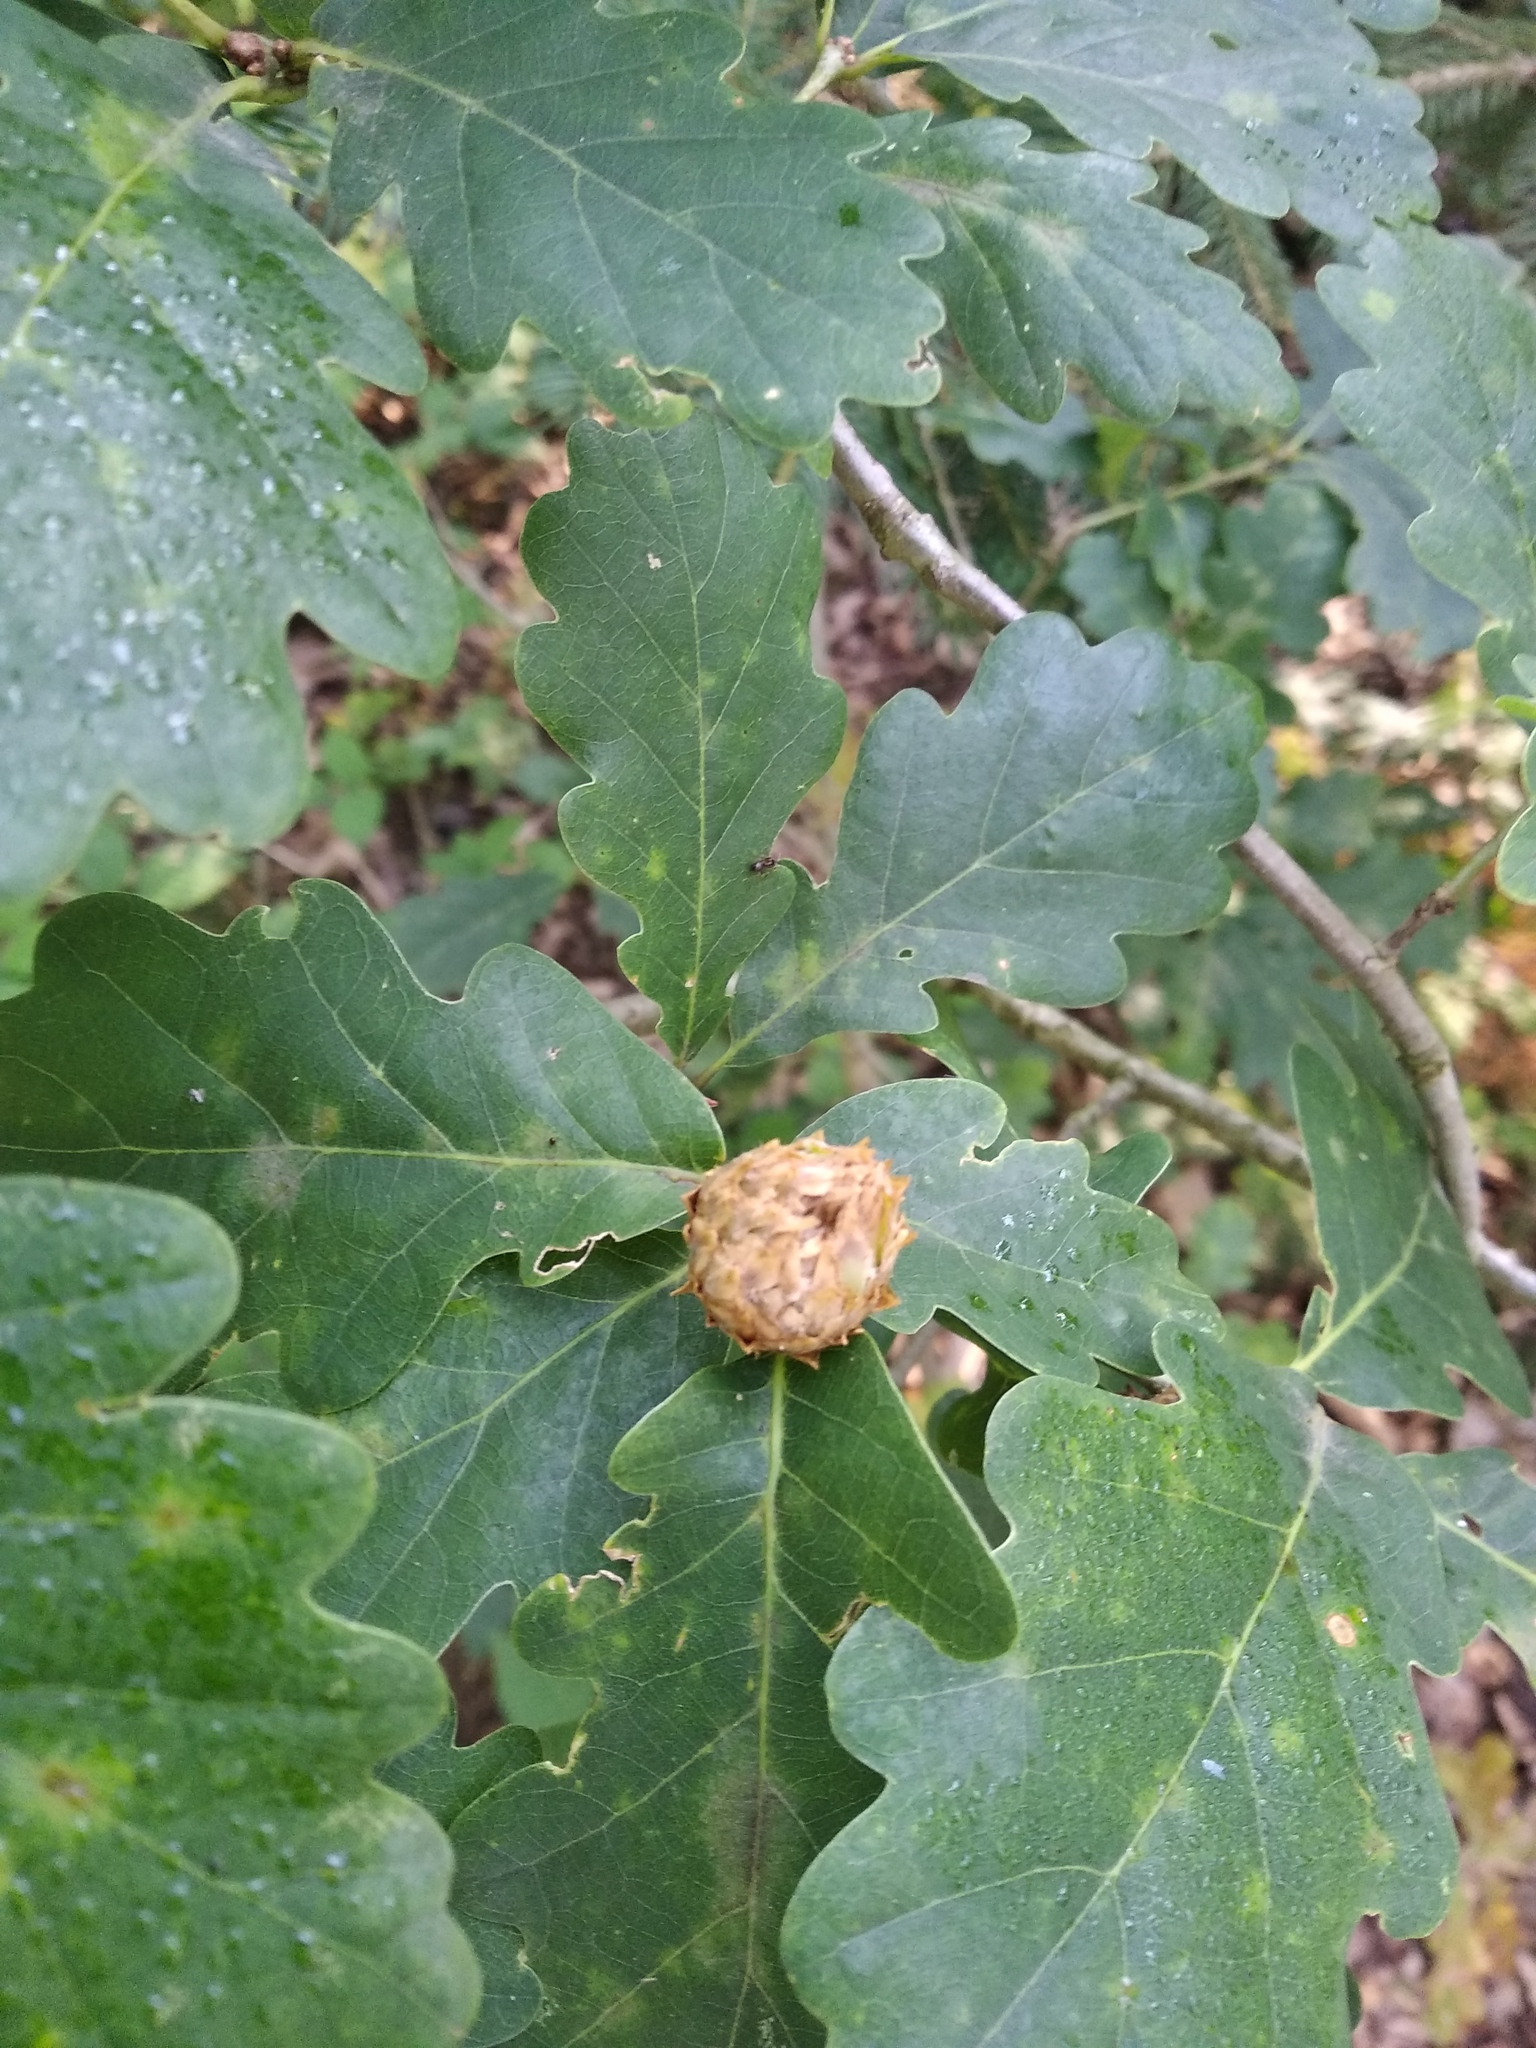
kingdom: Animalia
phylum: Arthropoda
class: Insecta
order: Hymenoptera
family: Cynipidae
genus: Andricus
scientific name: Andricus foecundatrix
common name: Artichoke gall
